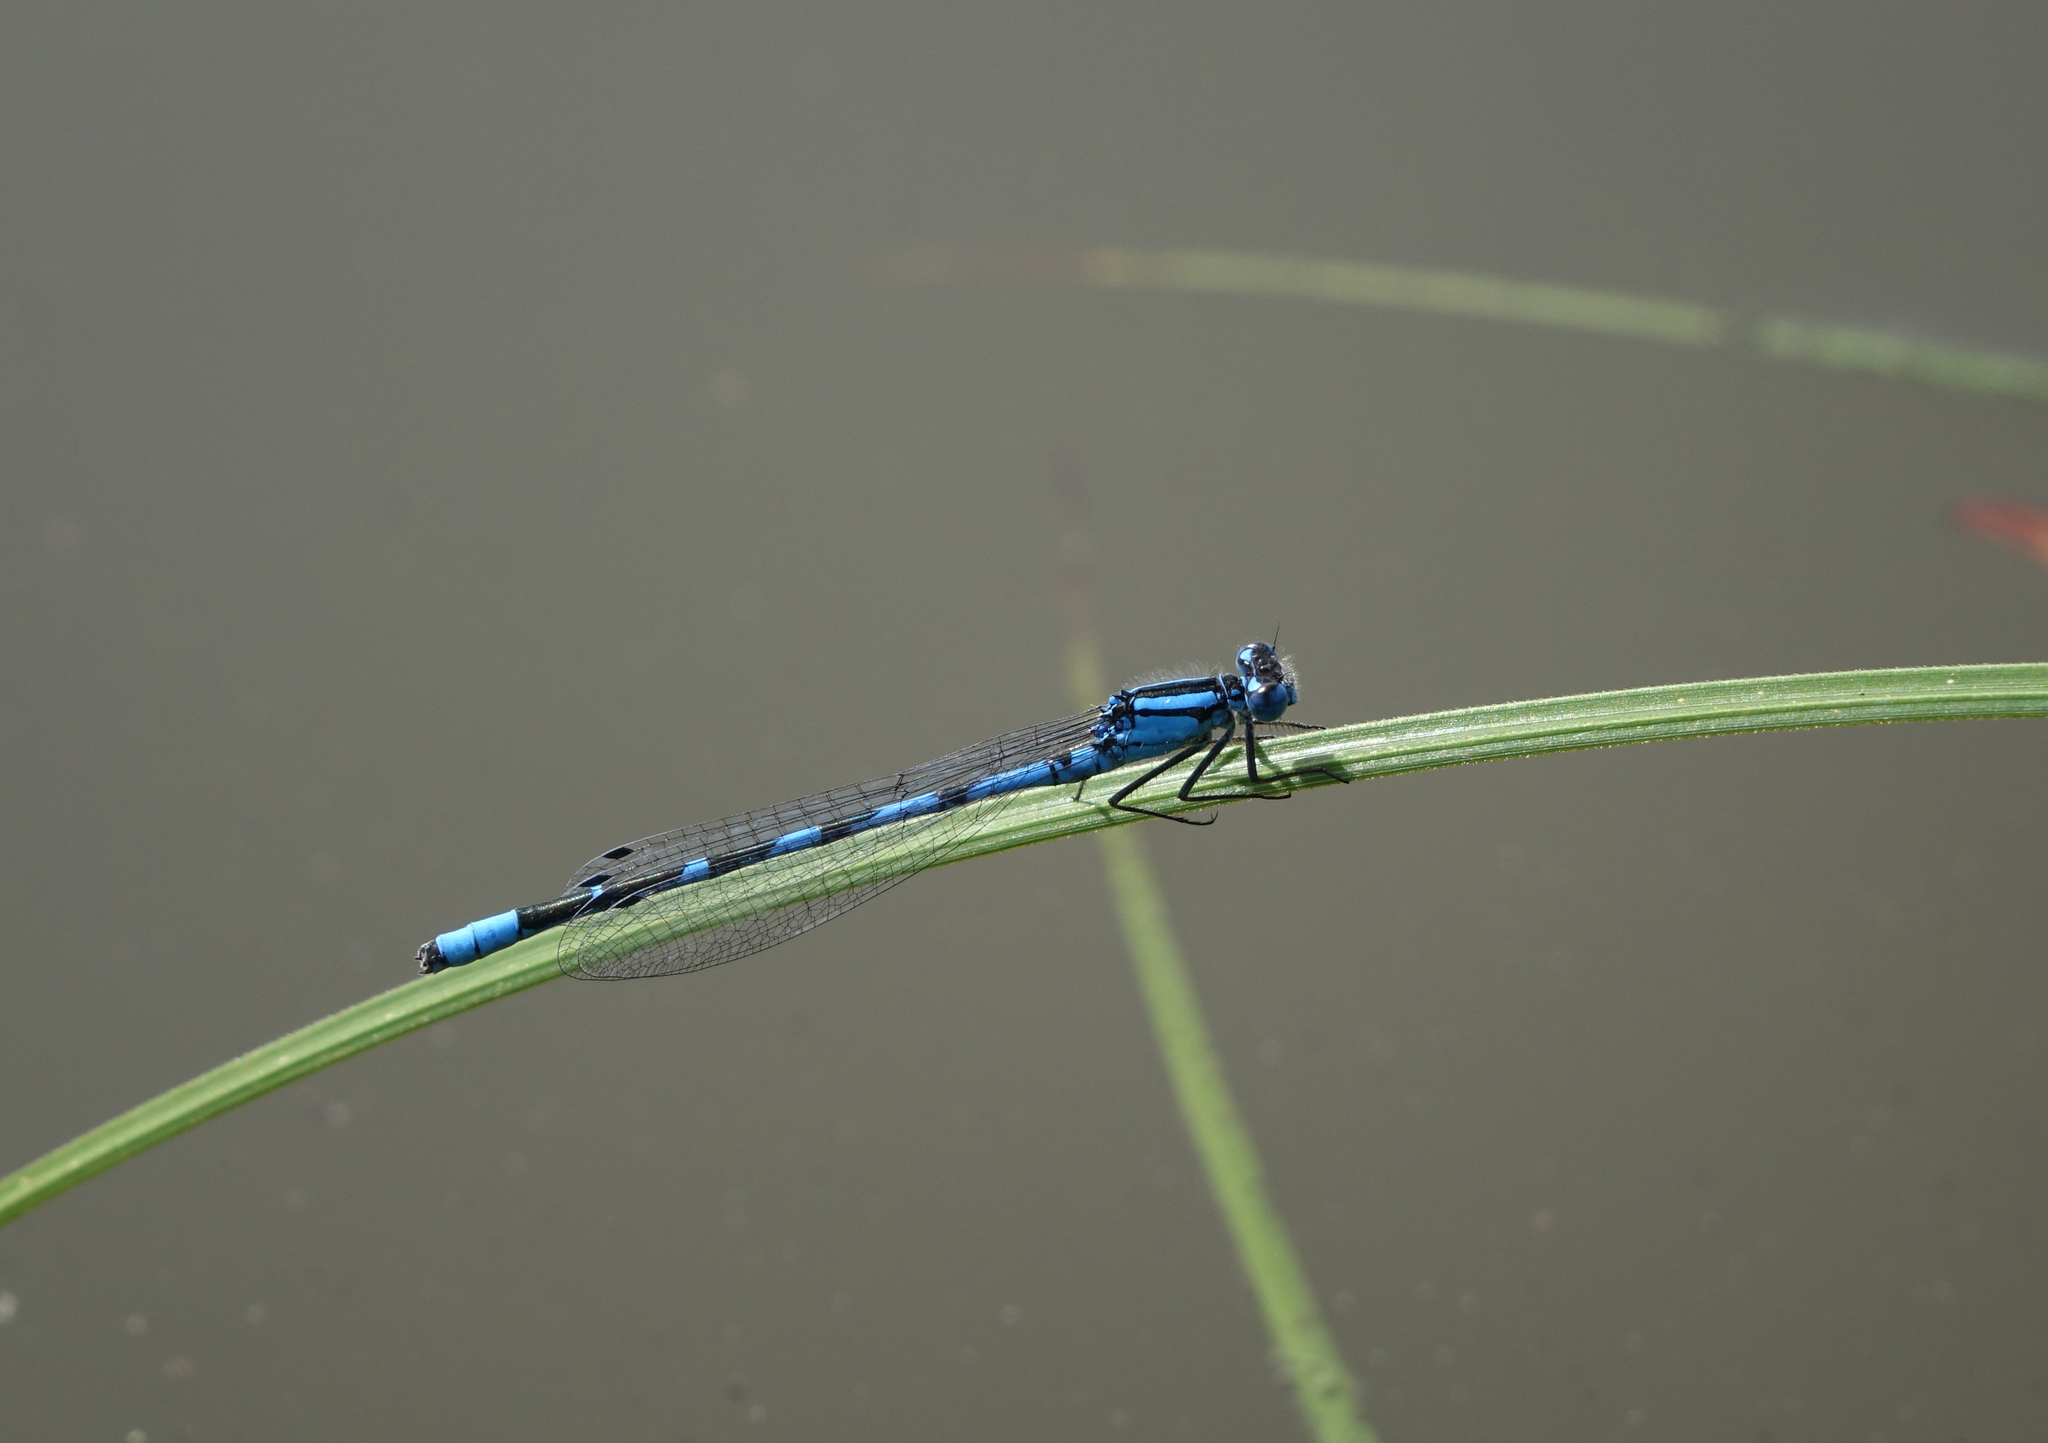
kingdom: Animalia
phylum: Arthropoda
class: Insecta
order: Odonata
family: Coenagrionidae
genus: Enallagma
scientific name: Enallagma cyathigerum
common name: Common blue damselfly
